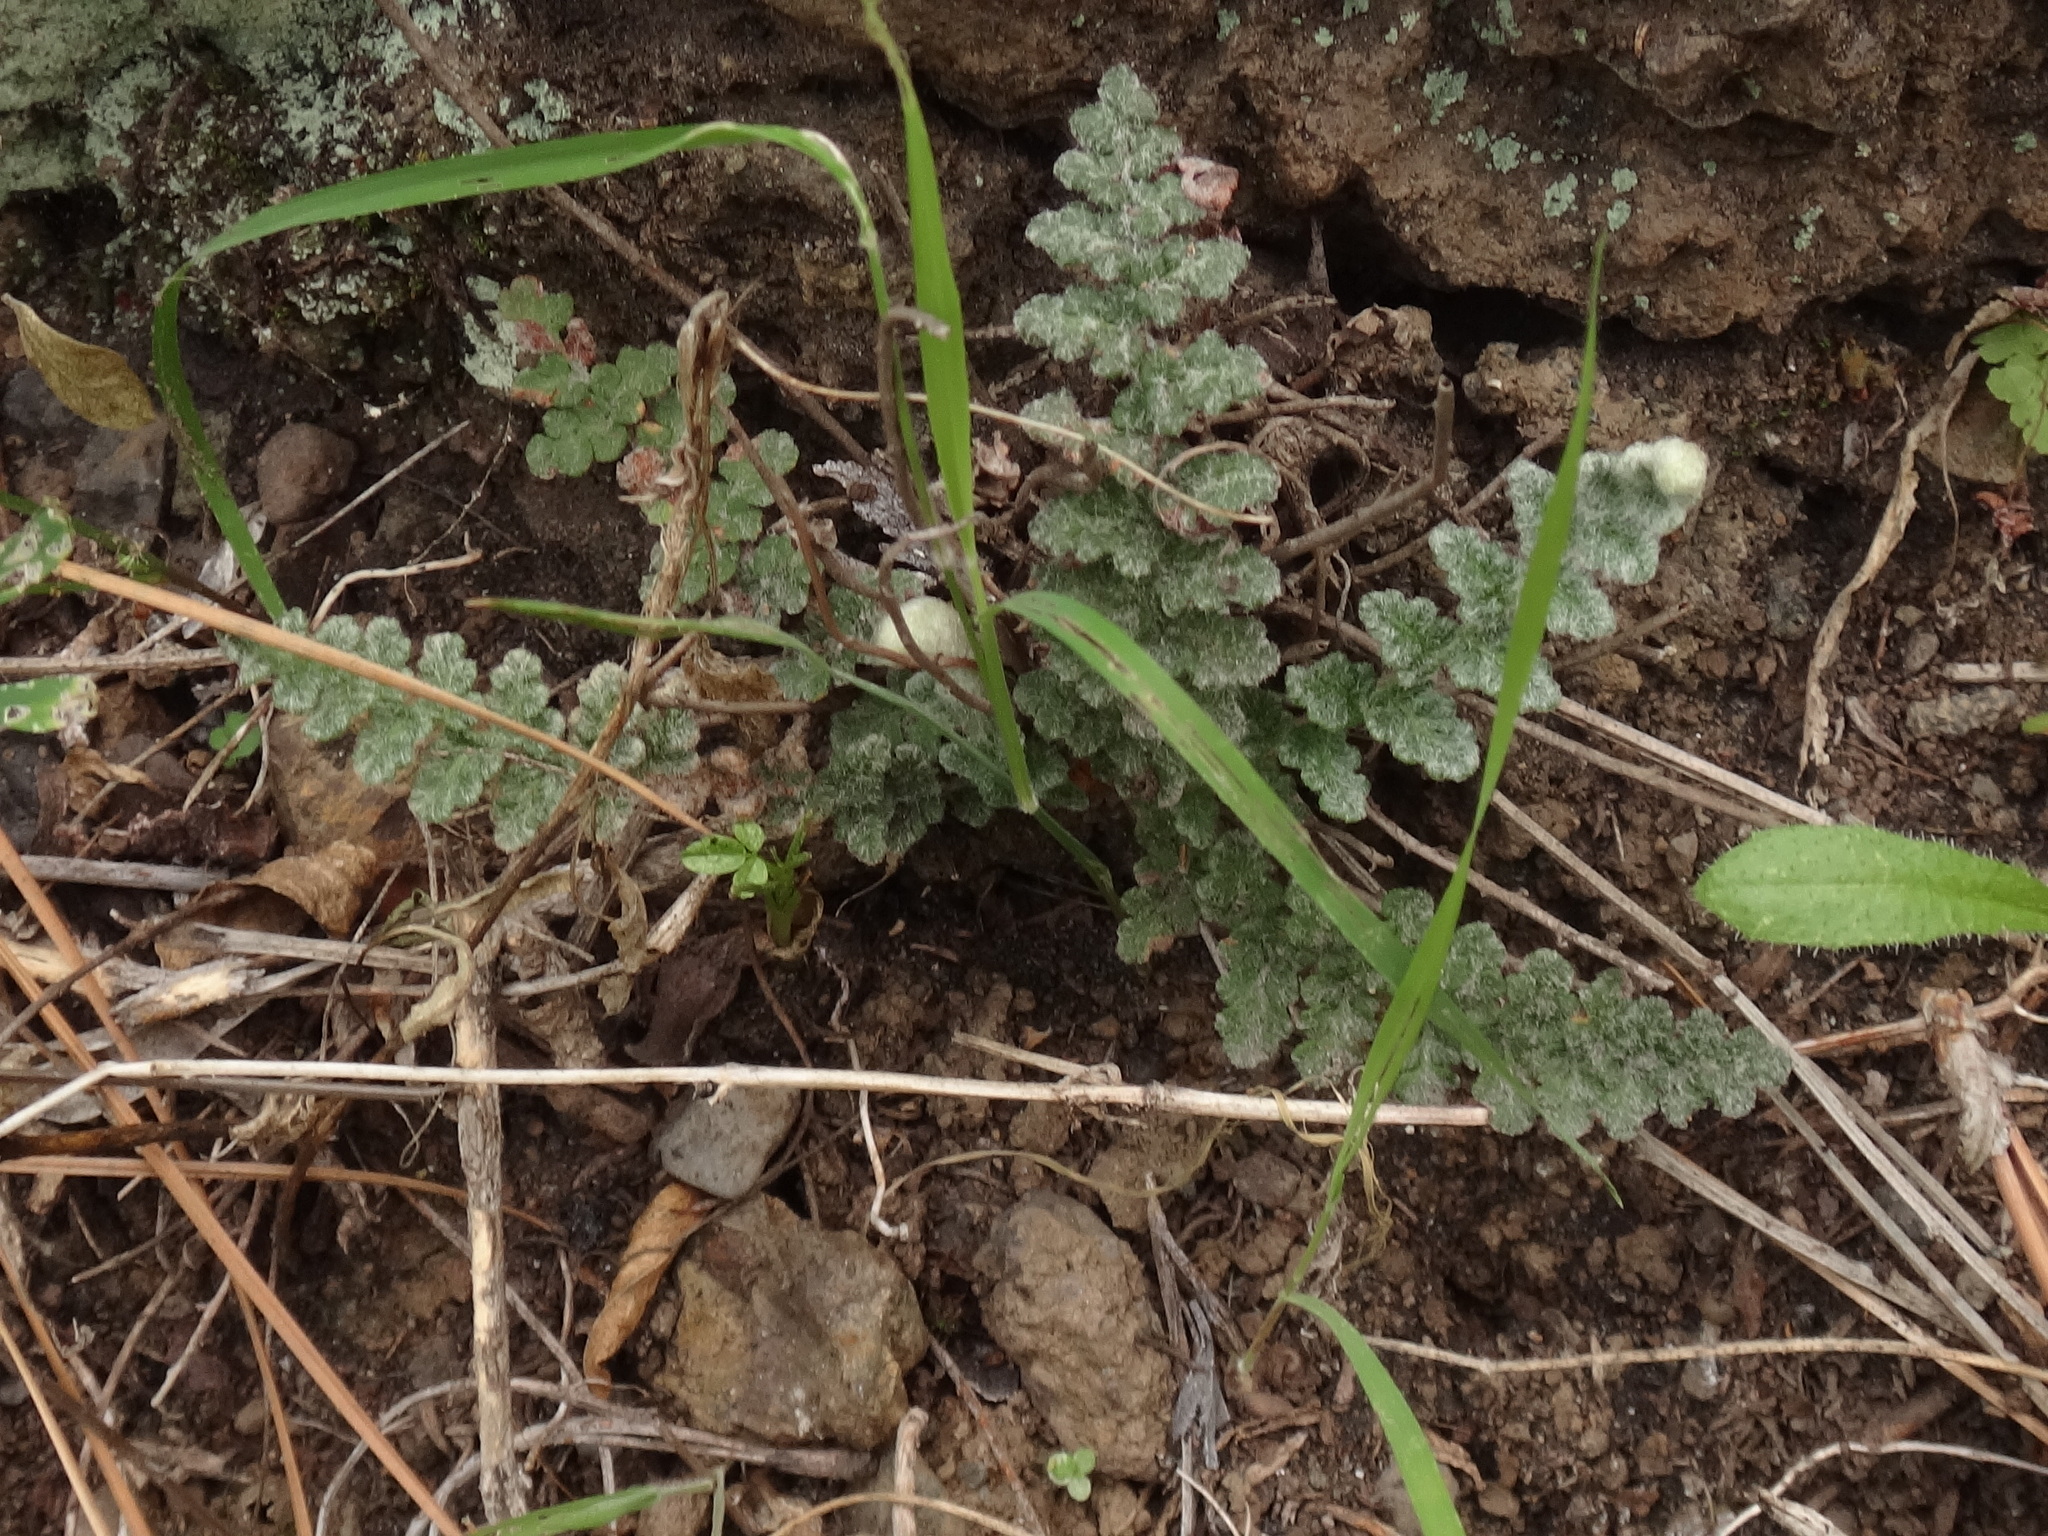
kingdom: Plantae
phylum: Tracheophyta
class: Polypodiopsida
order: Polypodiales
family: Pteridaceae
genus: Cosentinia
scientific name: Cosentinia vellea
